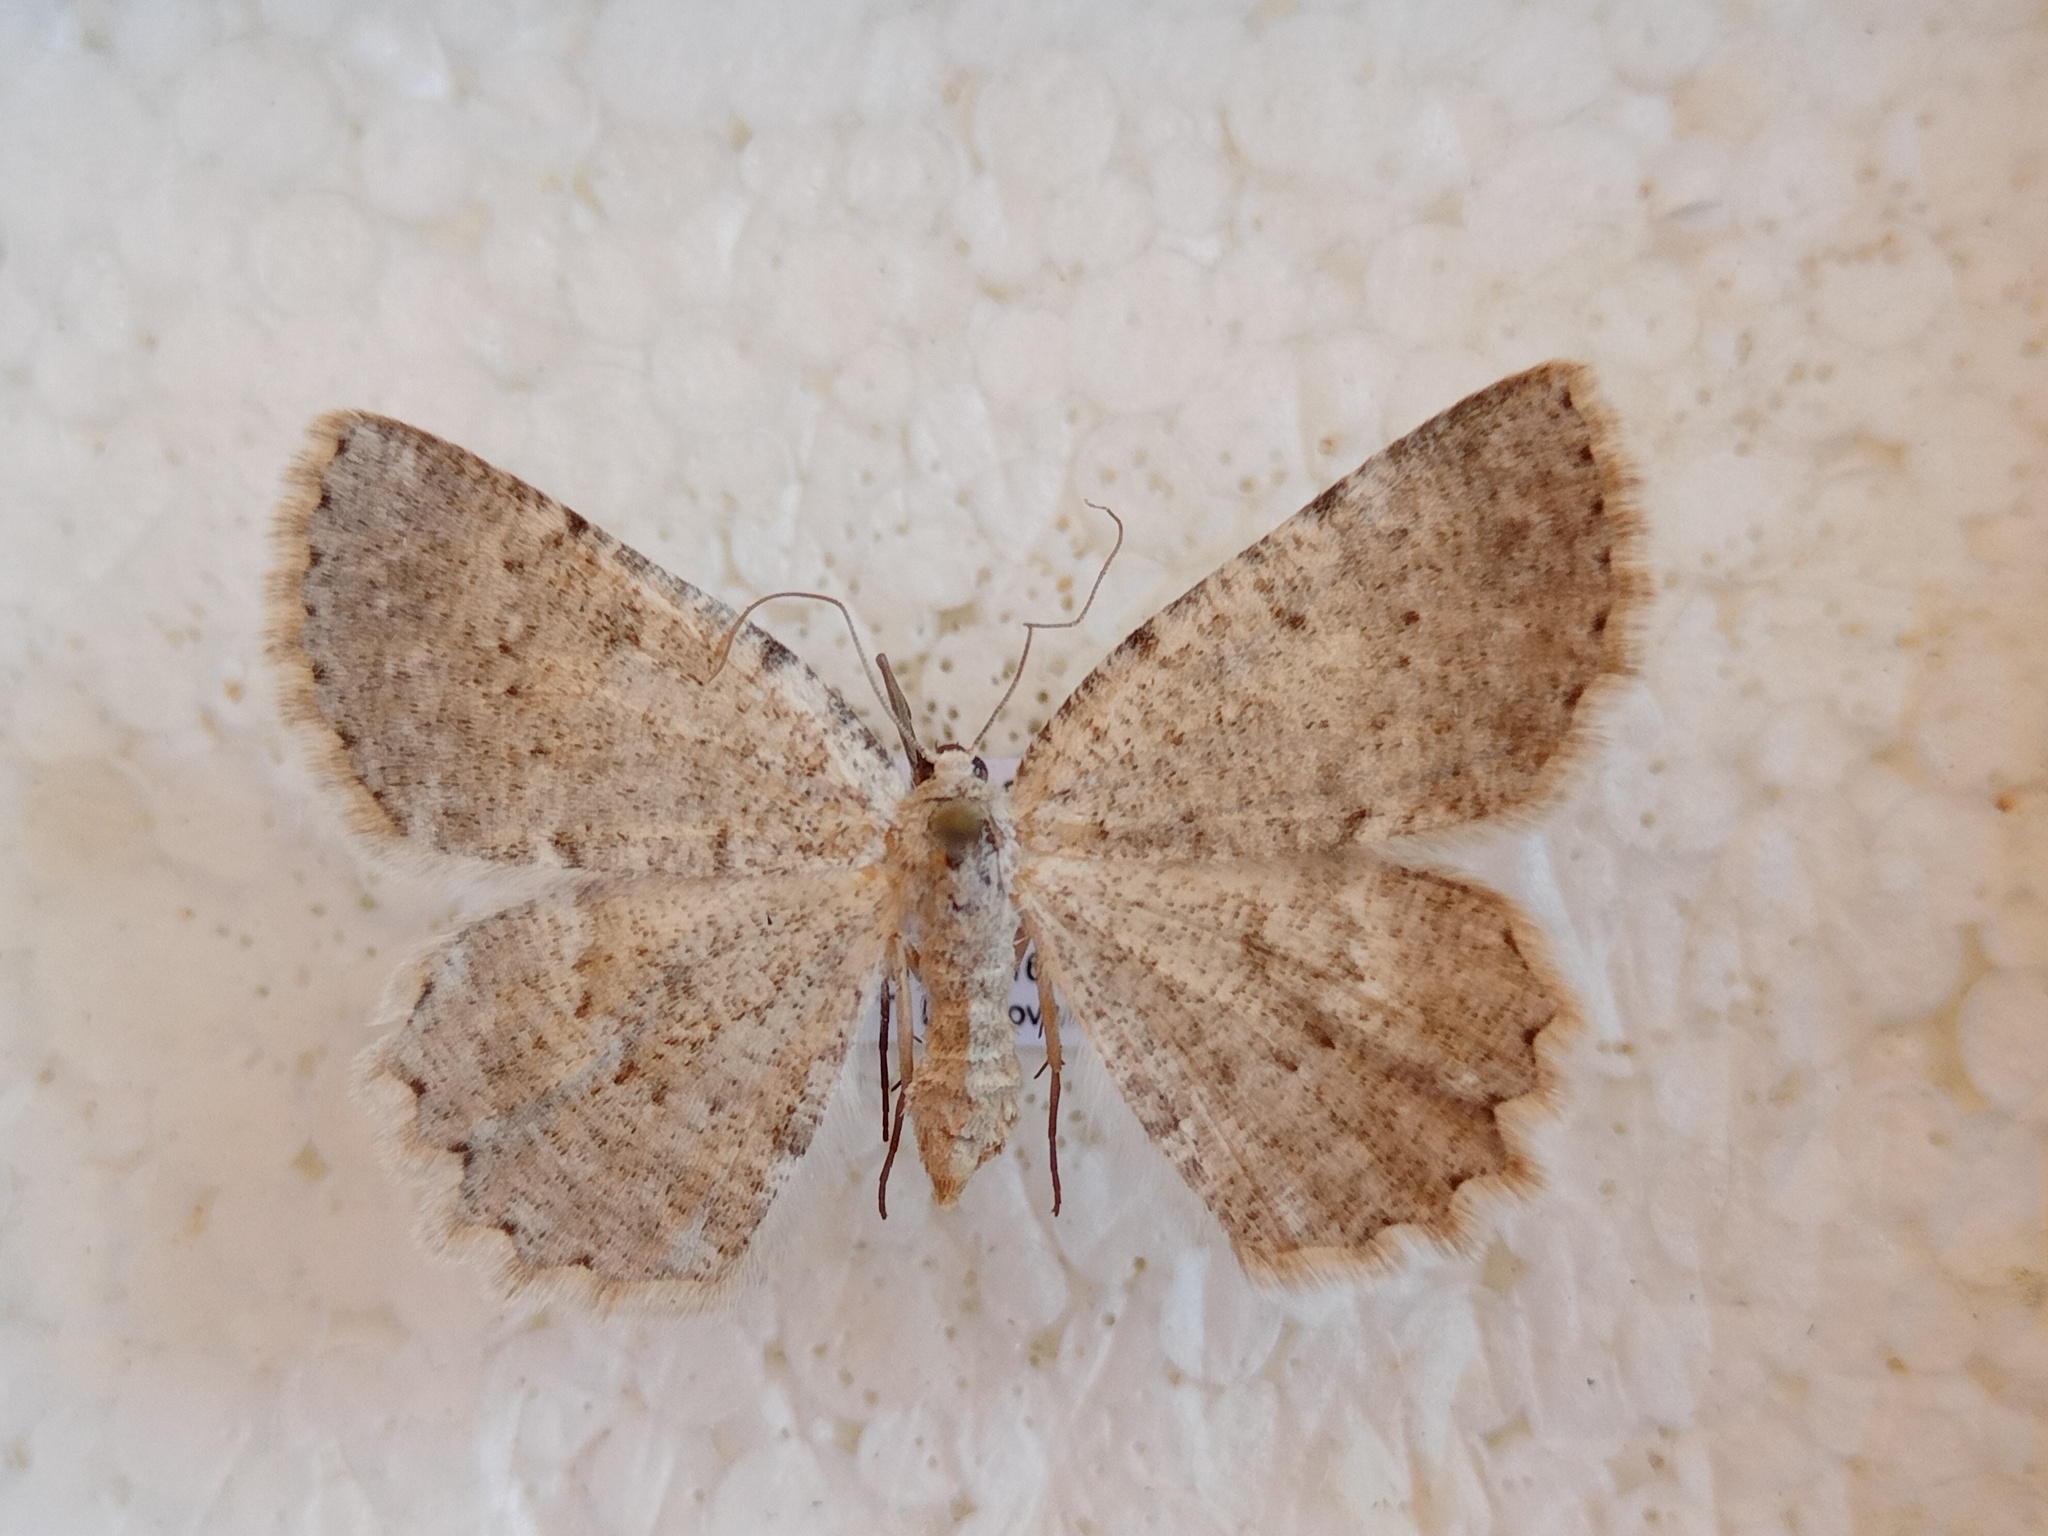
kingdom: Animalia
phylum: Arthropoda
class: Insecta
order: Lepidoptera
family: Geometridae
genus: Charissa
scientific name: Charissa pullata
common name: Limestone annulet
